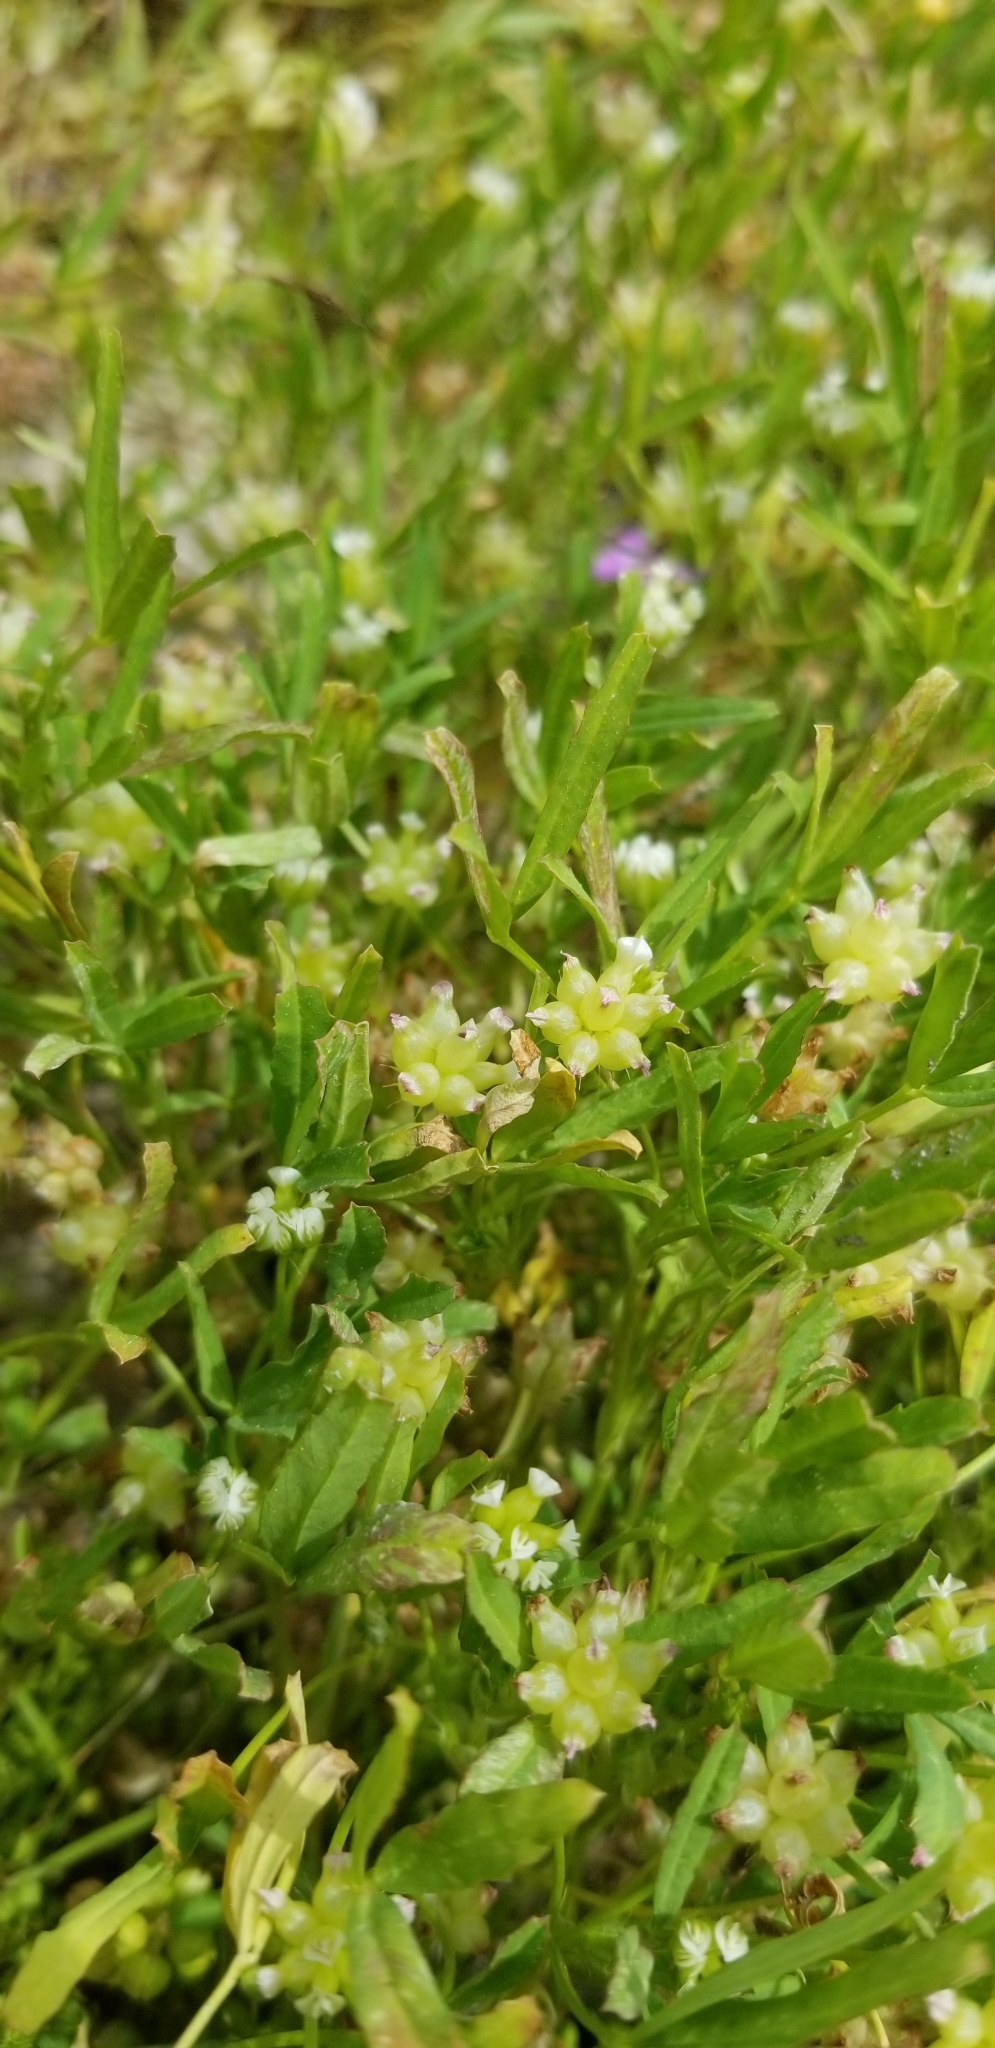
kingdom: Plantae
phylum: Tracheophyta
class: Magnoliopsida
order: Fabales
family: Fabaceae
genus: Trifolium
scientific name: Trifolium depauperatum
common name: Poverty clover
